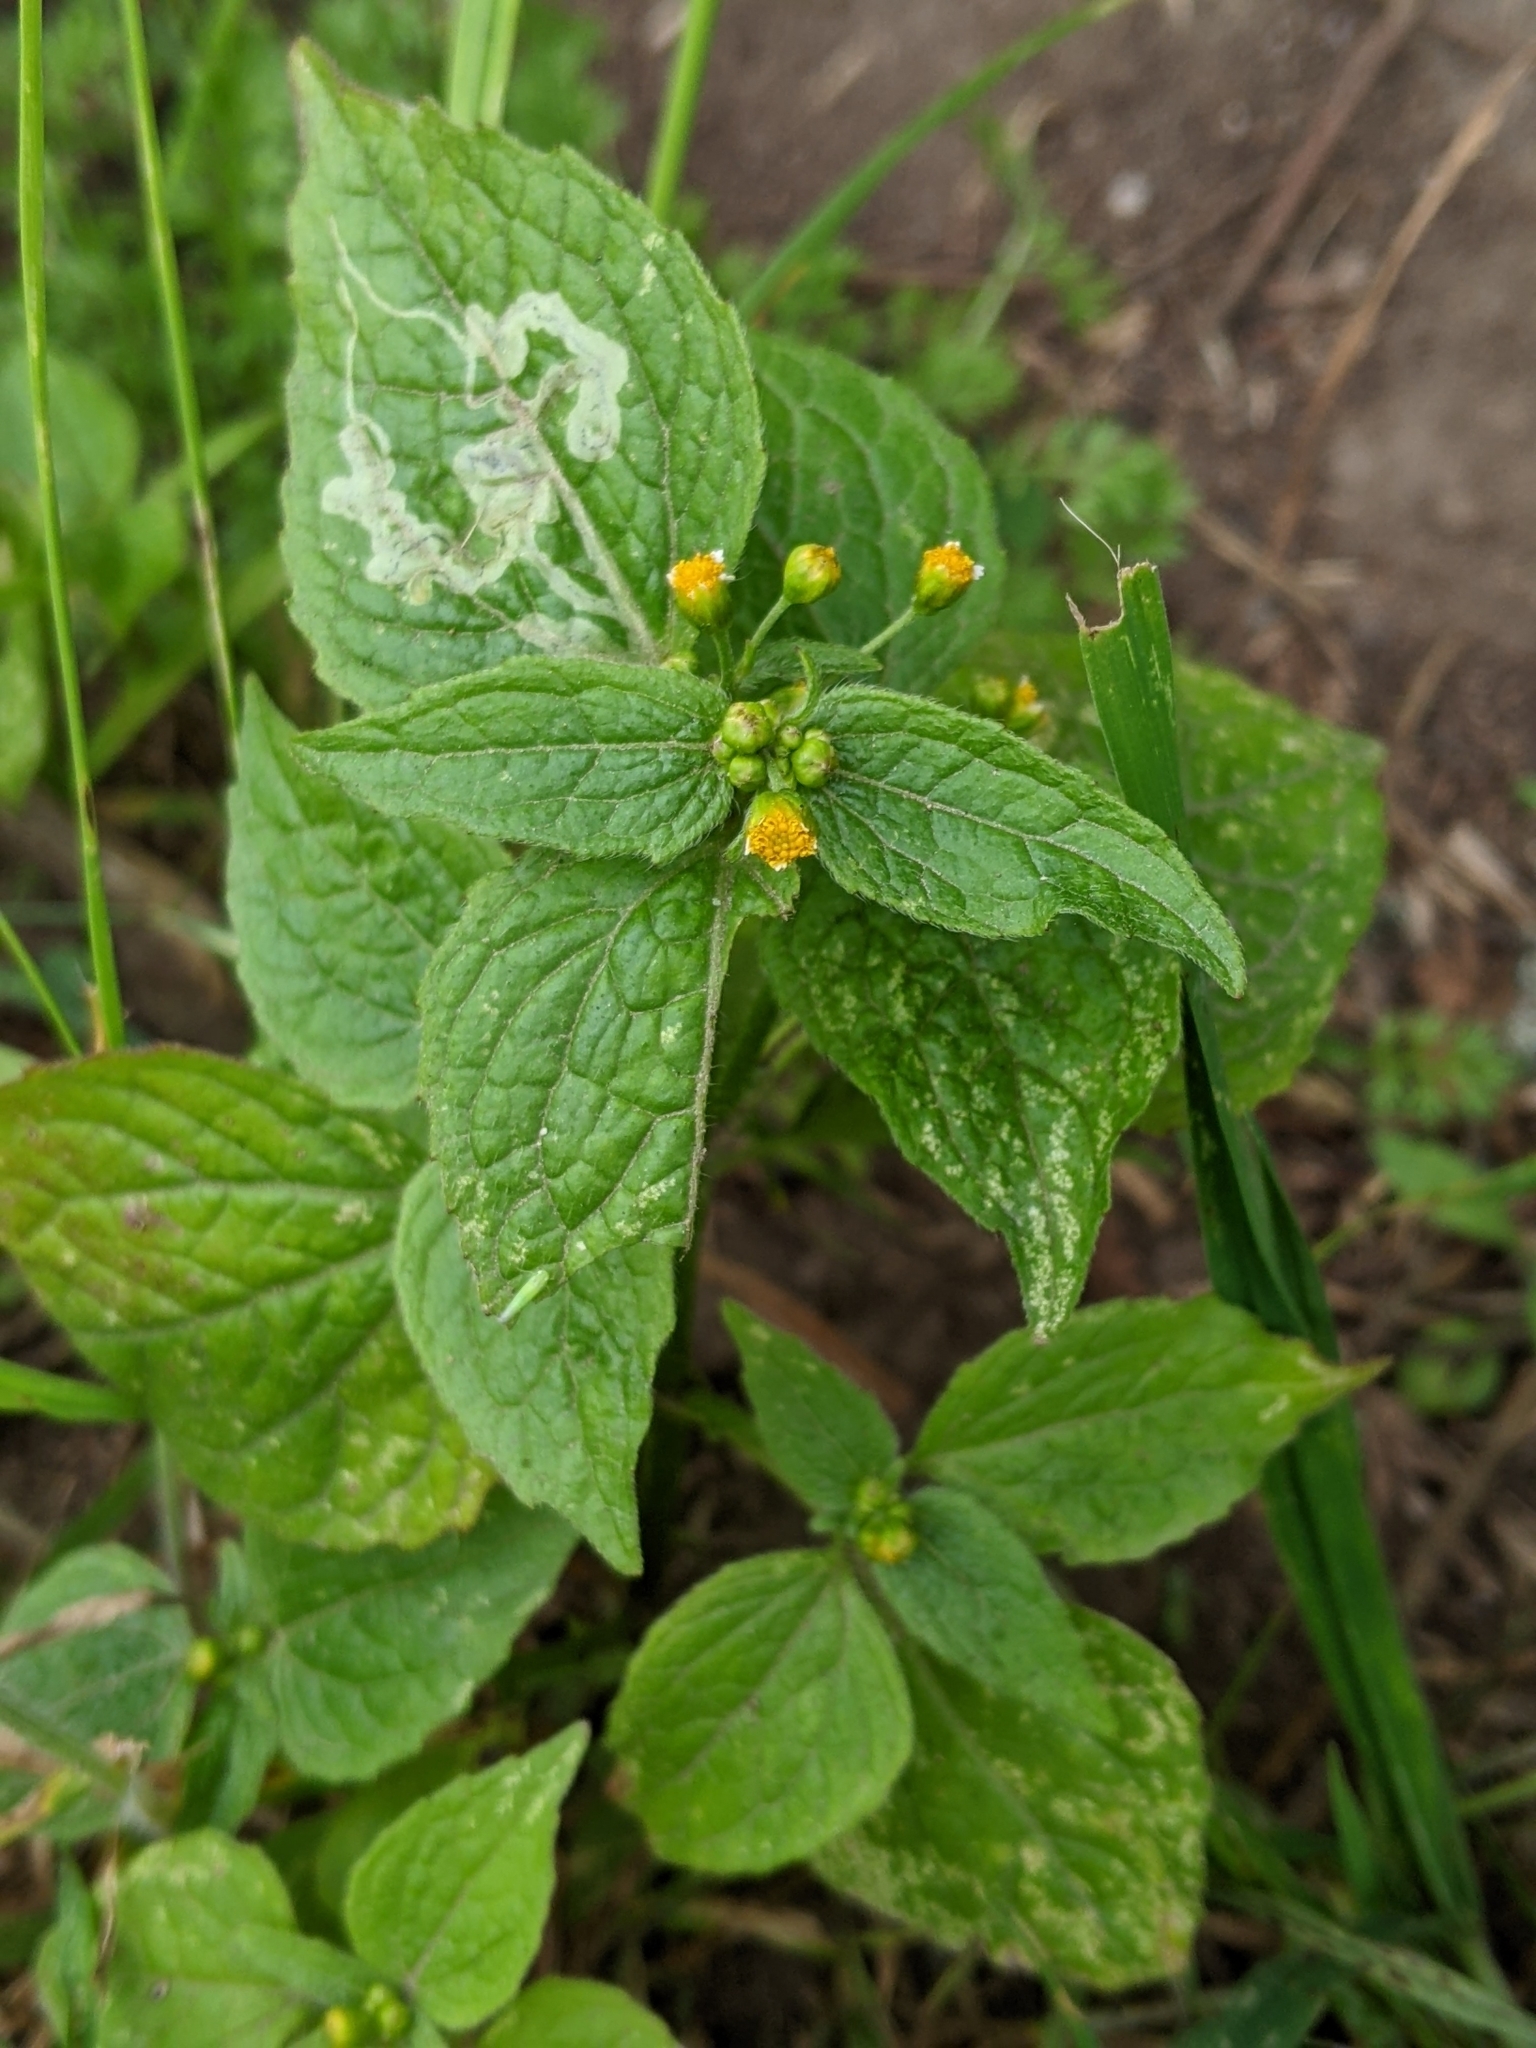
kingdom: Plantae
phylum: Tracheophyta
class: Magnoliopsida
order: Asterales
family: Asteraceae
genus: Galinsoga
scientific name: Galinsoga parviflora
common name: Gallant soldier
